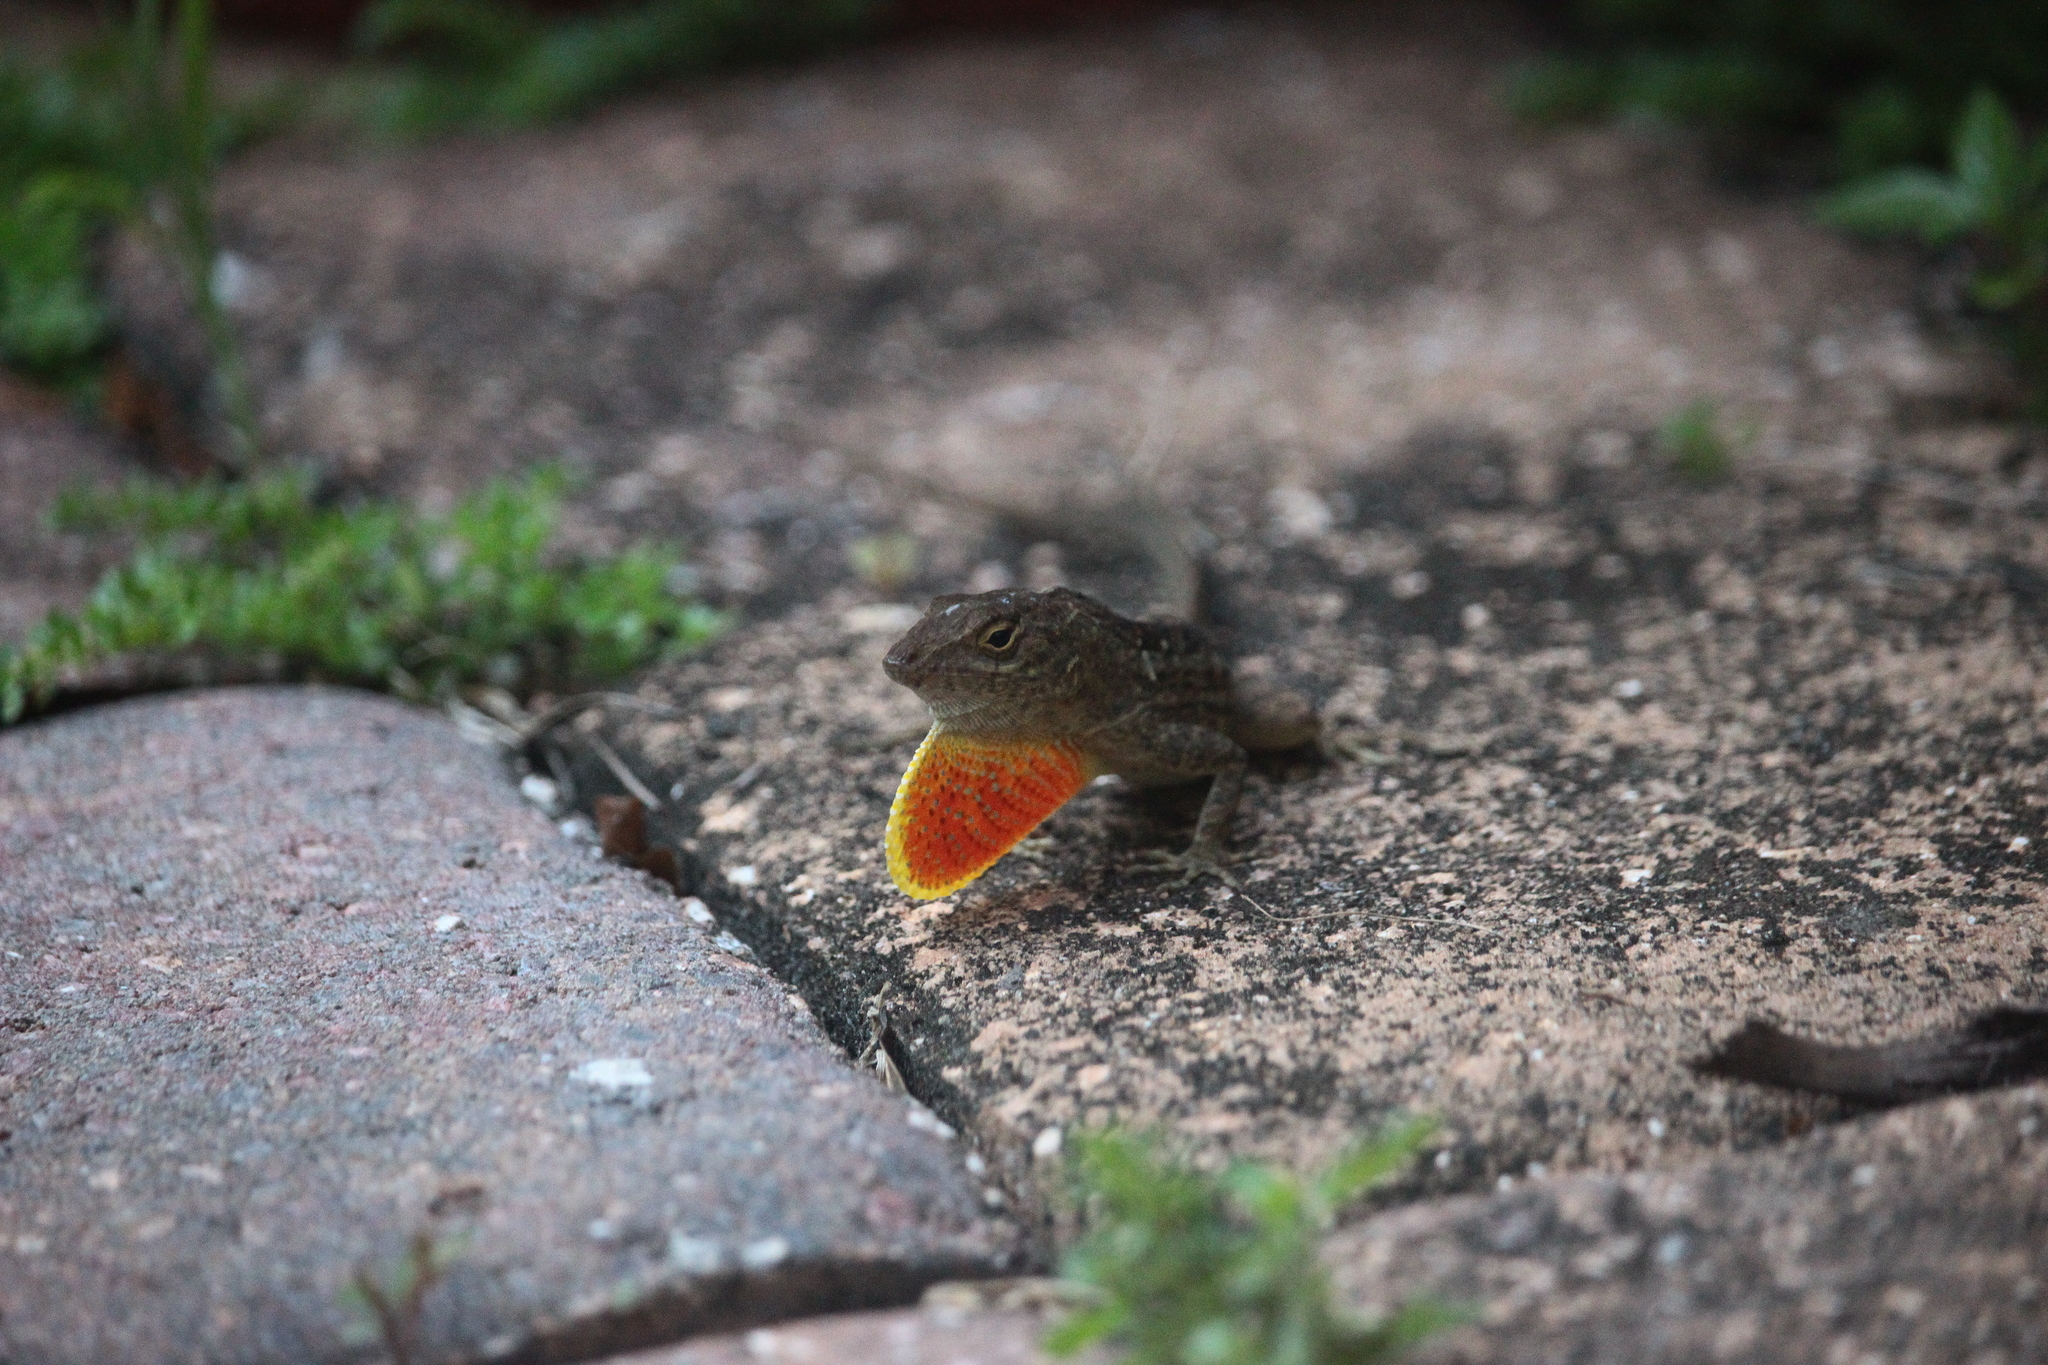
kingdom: Animalia
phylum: Chordata
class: Squamata
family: Dactyloidae
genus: Anolis
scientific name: Anolis sagrei
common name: Brown anole
